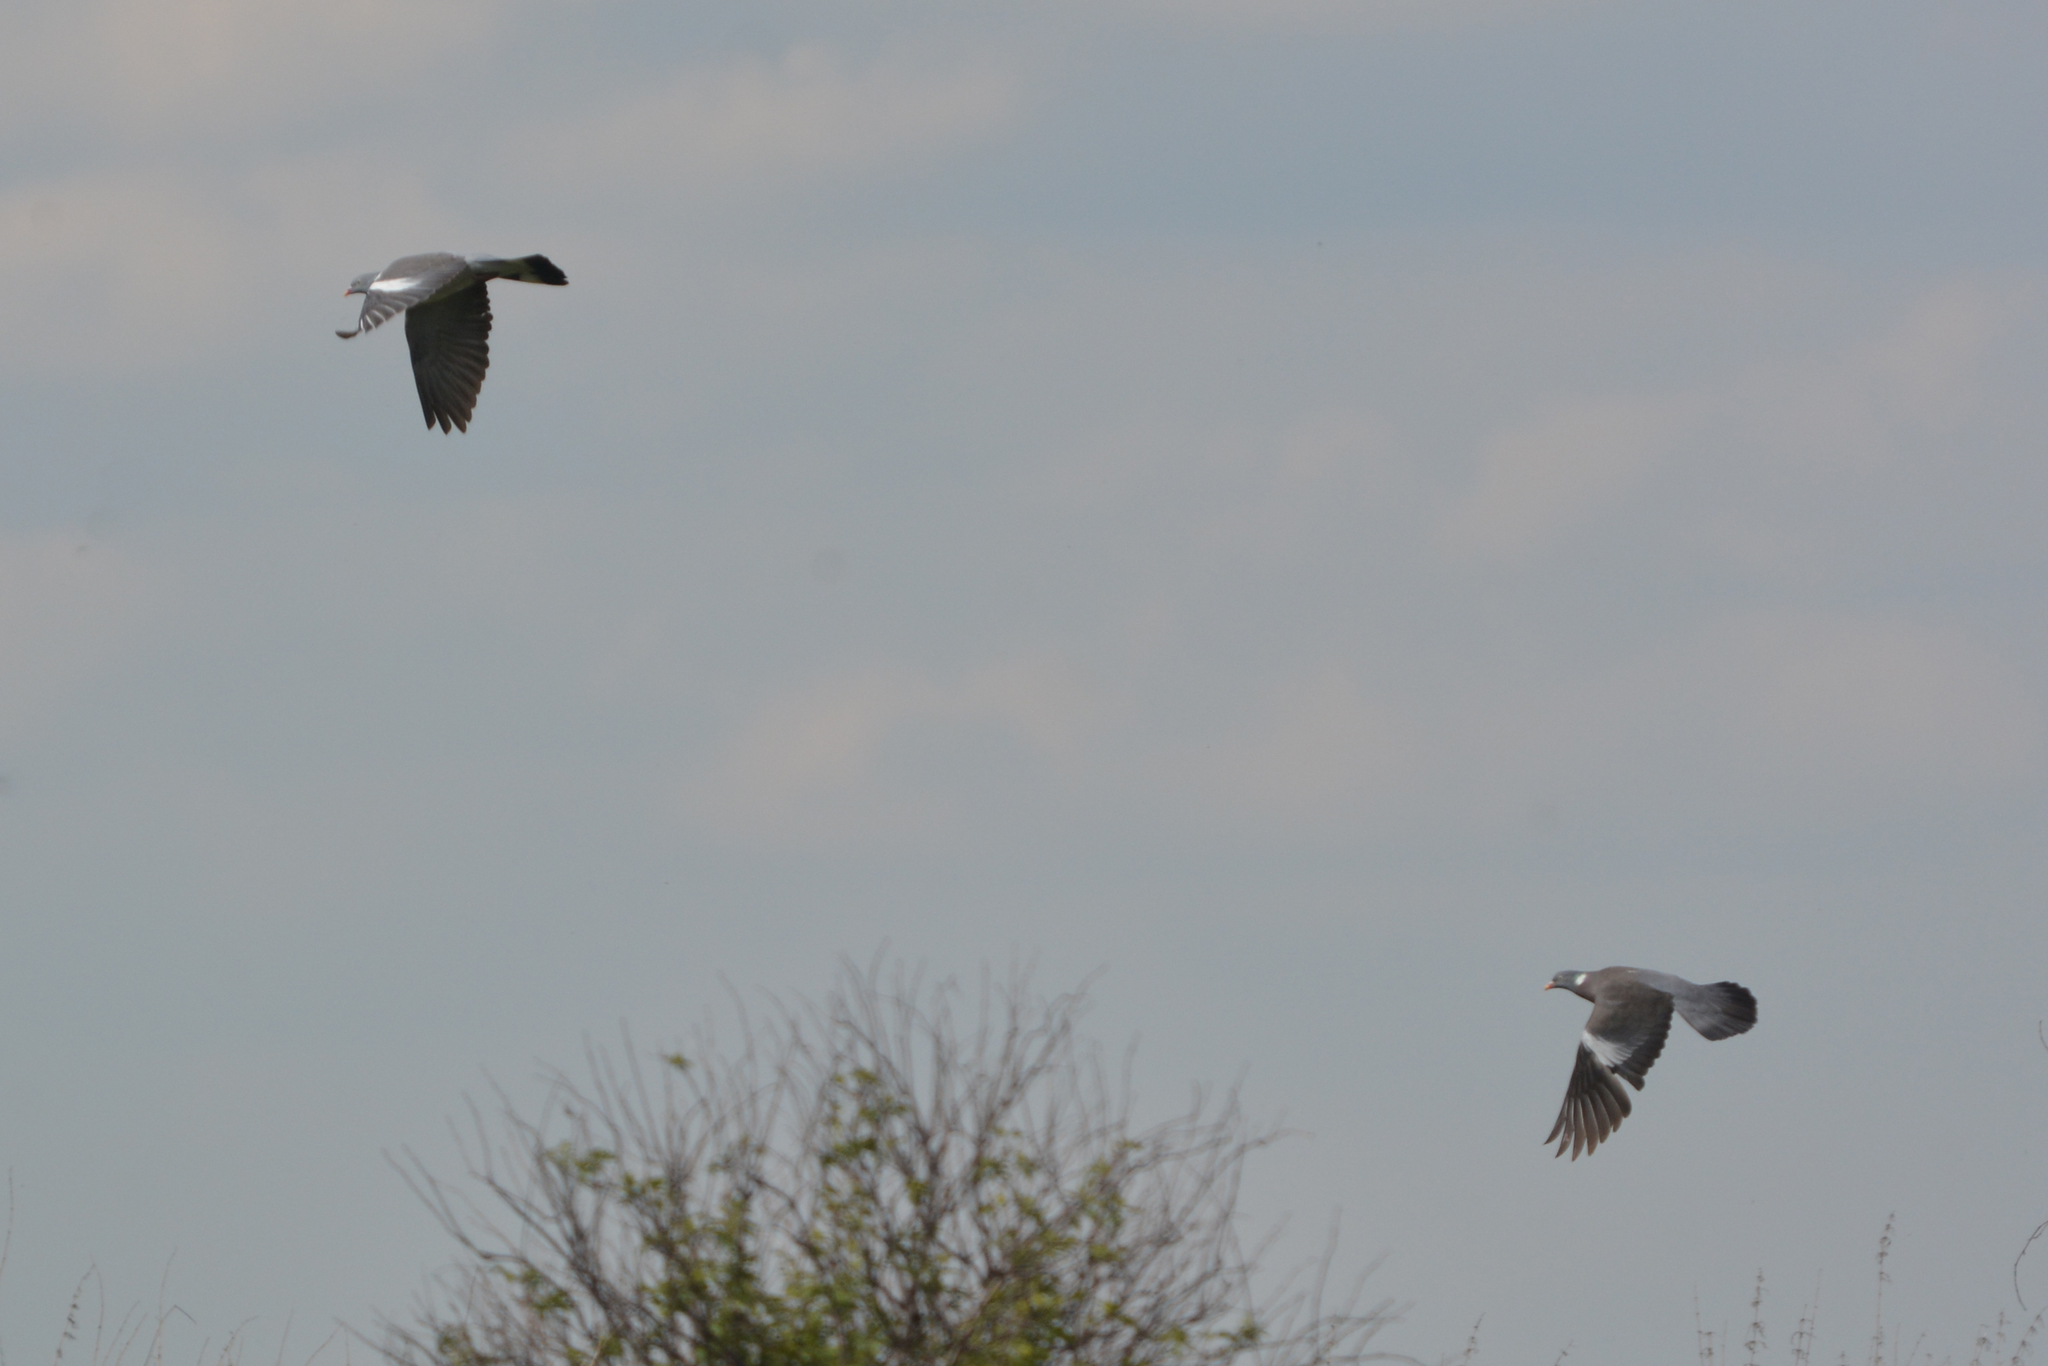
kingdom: Animalia
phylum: Chordata
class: Aves
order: Columbiformes
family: Columbidae
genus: Columba
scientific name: Columba palumbus
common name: Common wood pigeon
